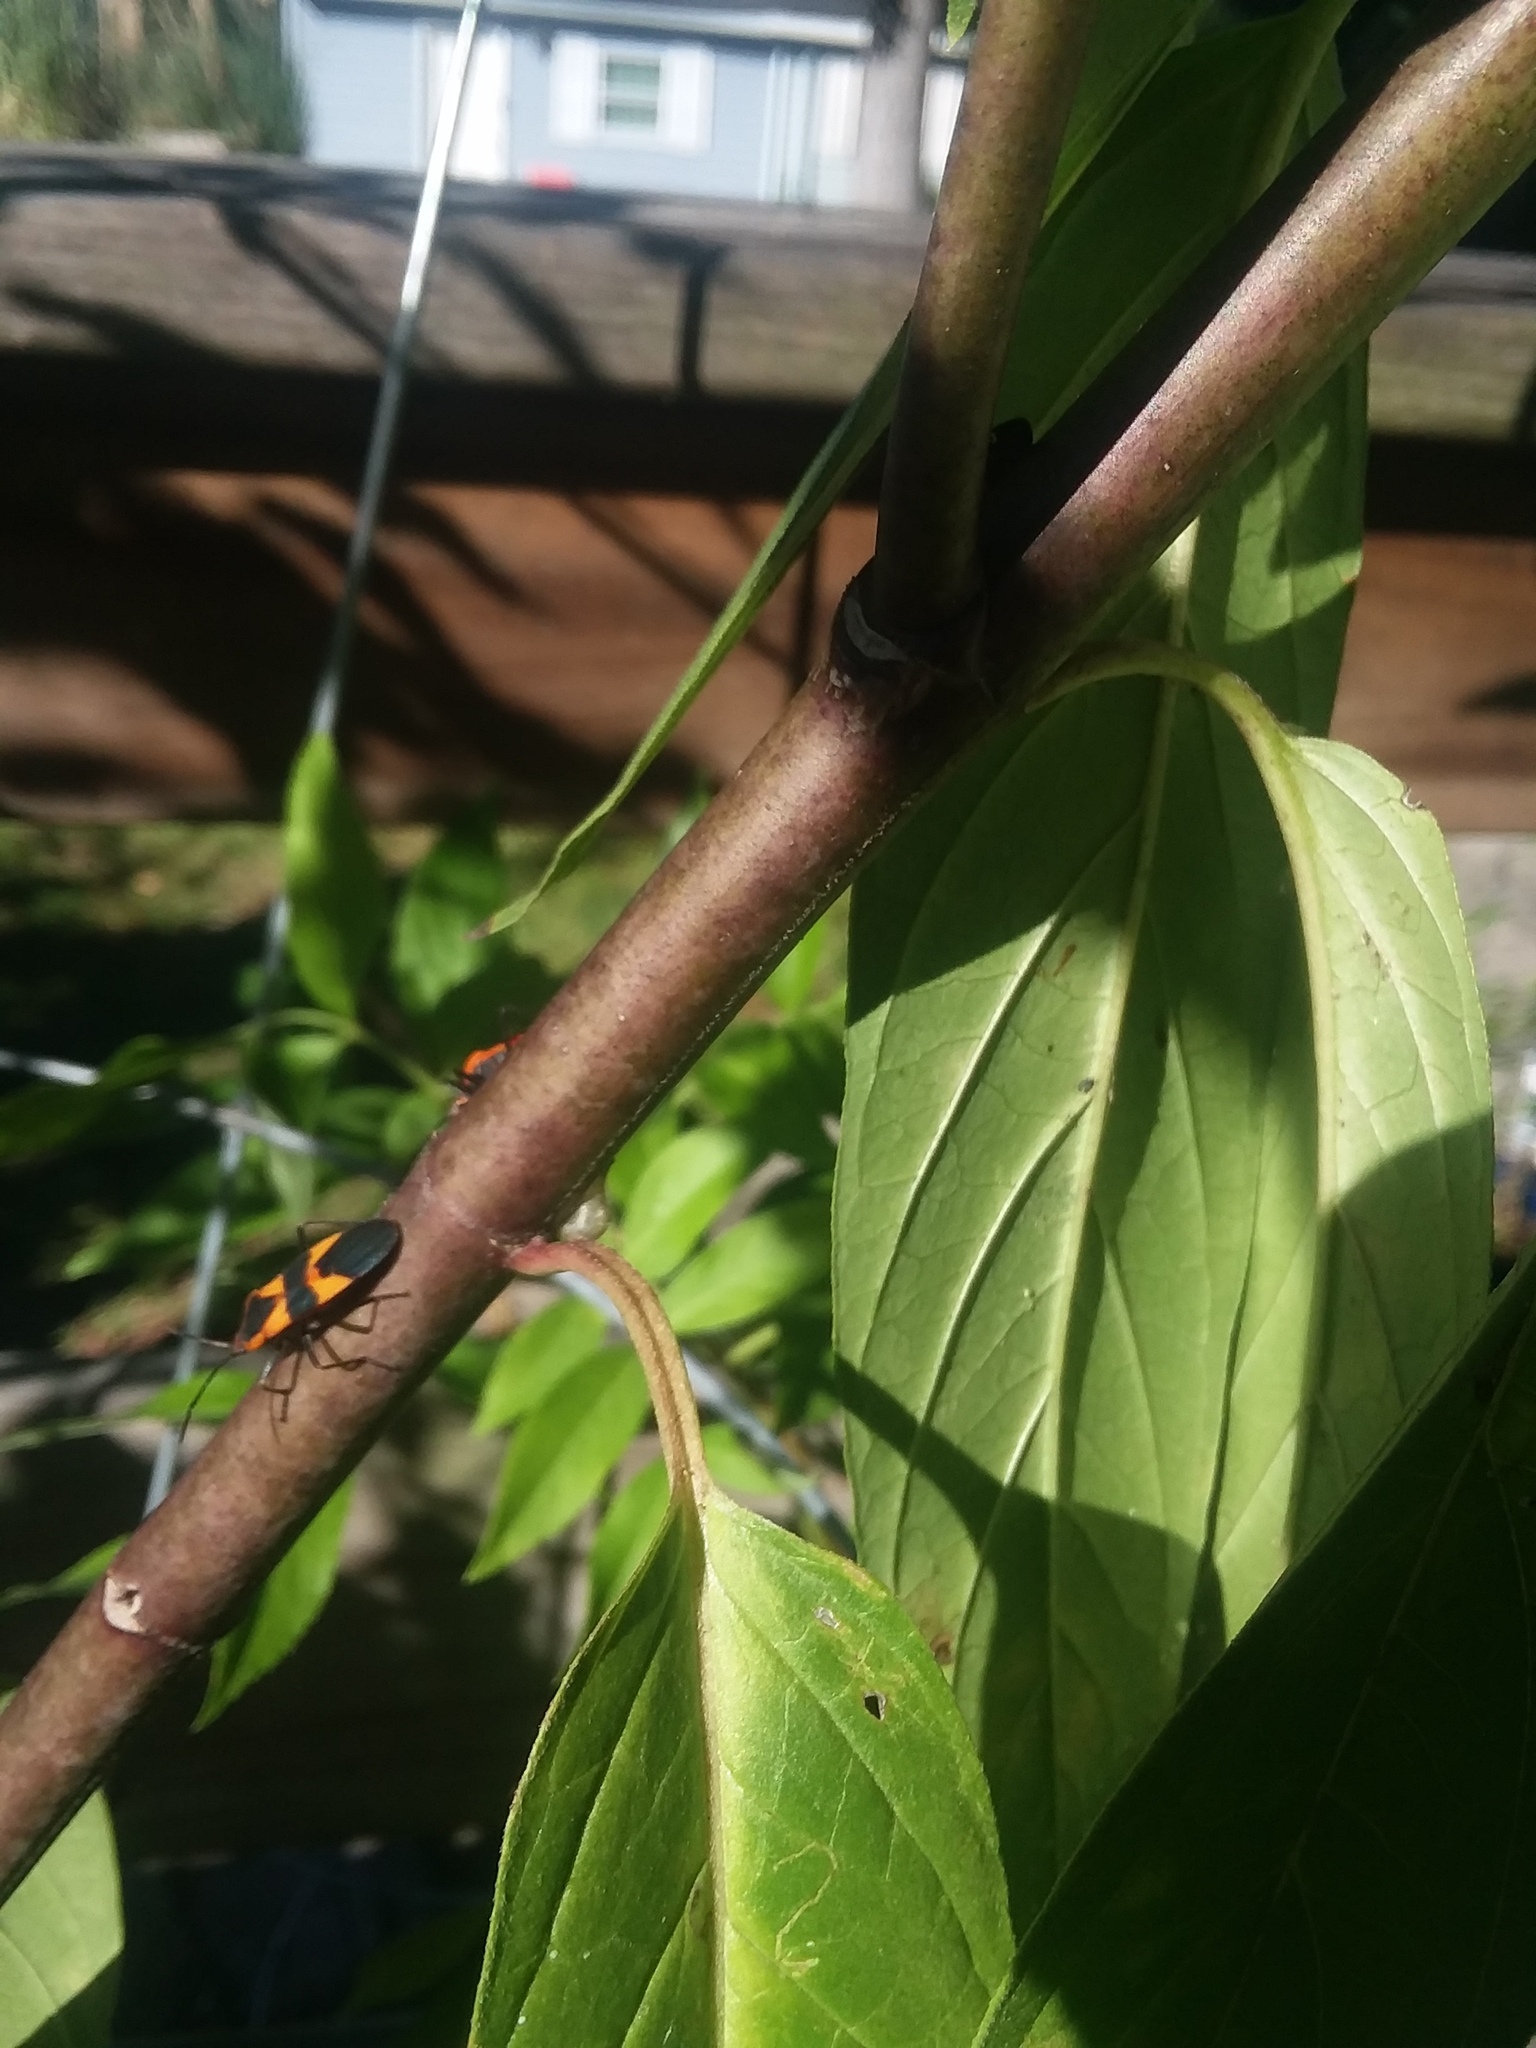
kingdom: Animalia
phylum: Arthropoda
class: Insecta
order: Hemiptera
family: Lygaeidae
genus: Oncopeltus
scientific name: Oncopeltus fasciatus
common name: Large milkweed bug
